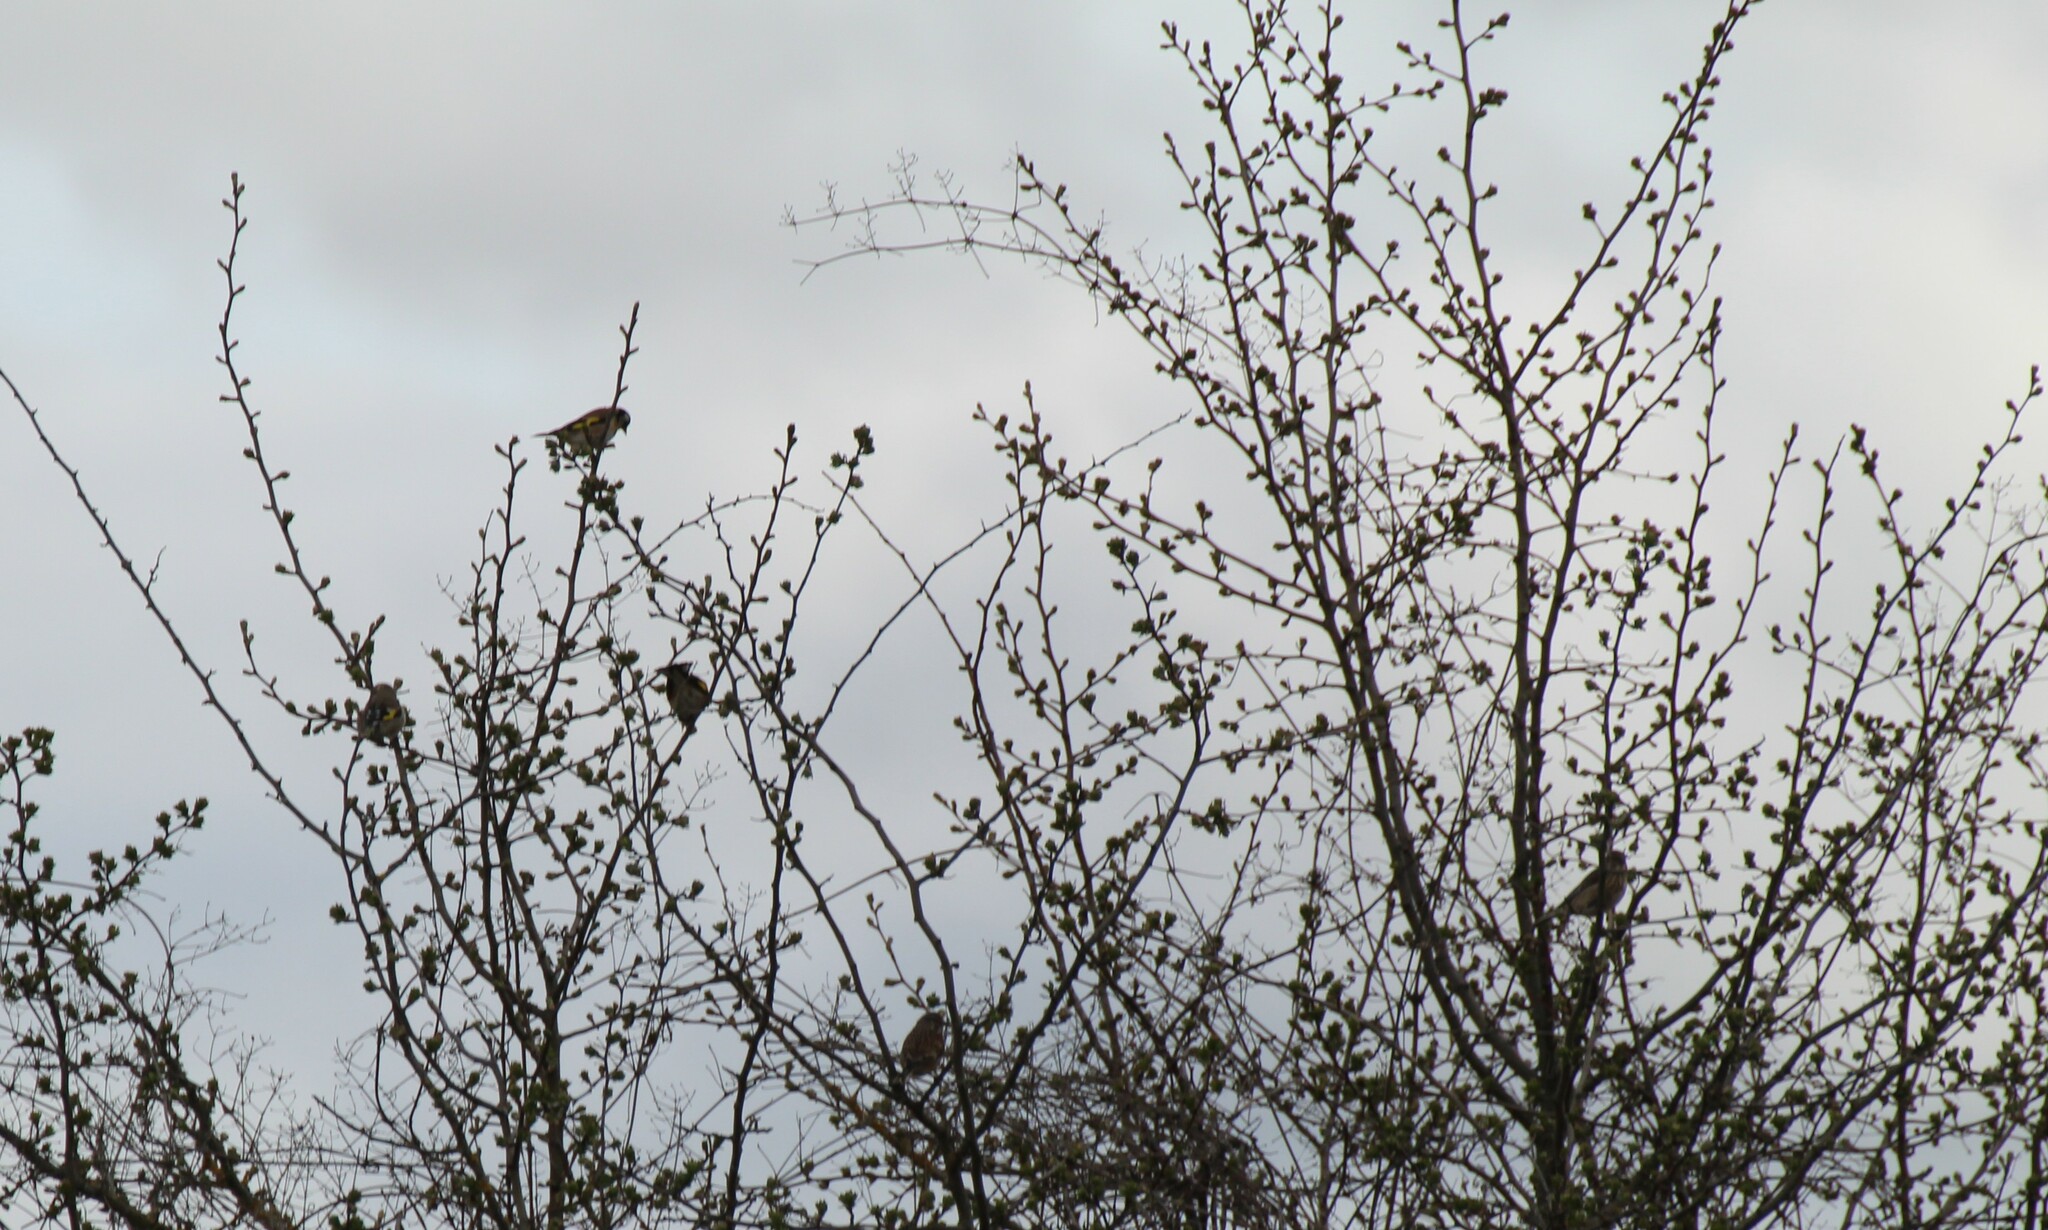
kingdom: Animalia
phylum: Chordata
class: Aves
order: Passeriformes
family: Fringillidae
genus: Carduelis
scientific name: Carduelis carduelis
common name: European goldfinch
